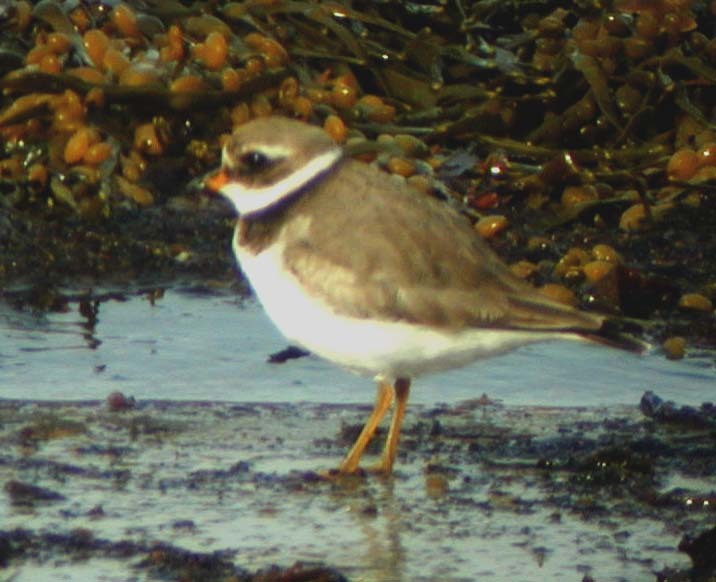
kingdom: Animalia
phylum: Chordata
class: Aves
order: Charadriiformes
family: Charadriidae
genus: Charadrius
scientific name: Charadrius hiaticula
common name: Common ringed plover
